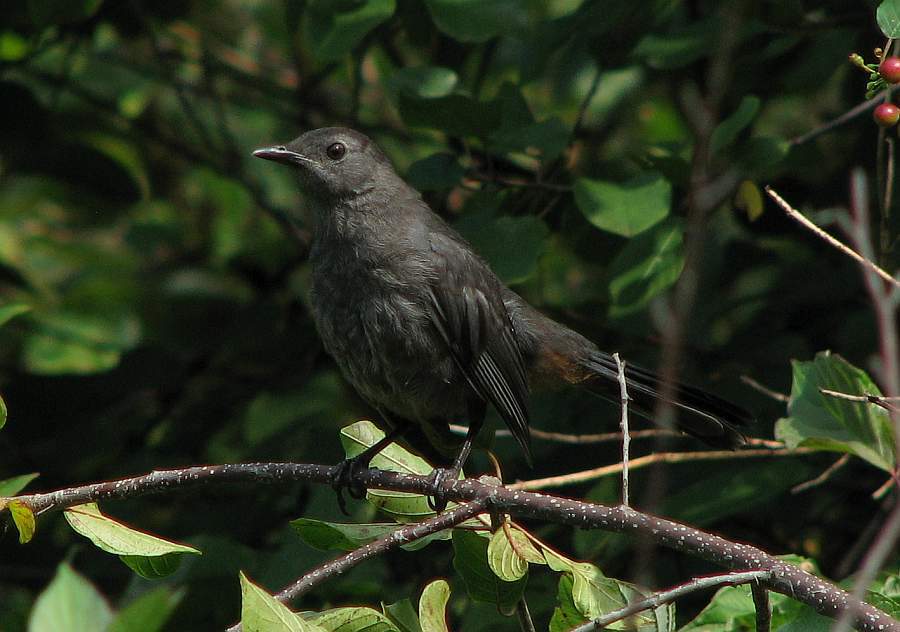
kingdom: Animalia
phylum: Chordata
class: Aves
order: Passeriformes
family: Mimidae
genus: Dumetella
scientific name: Dumetella carolinensis
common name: Gray catbird
